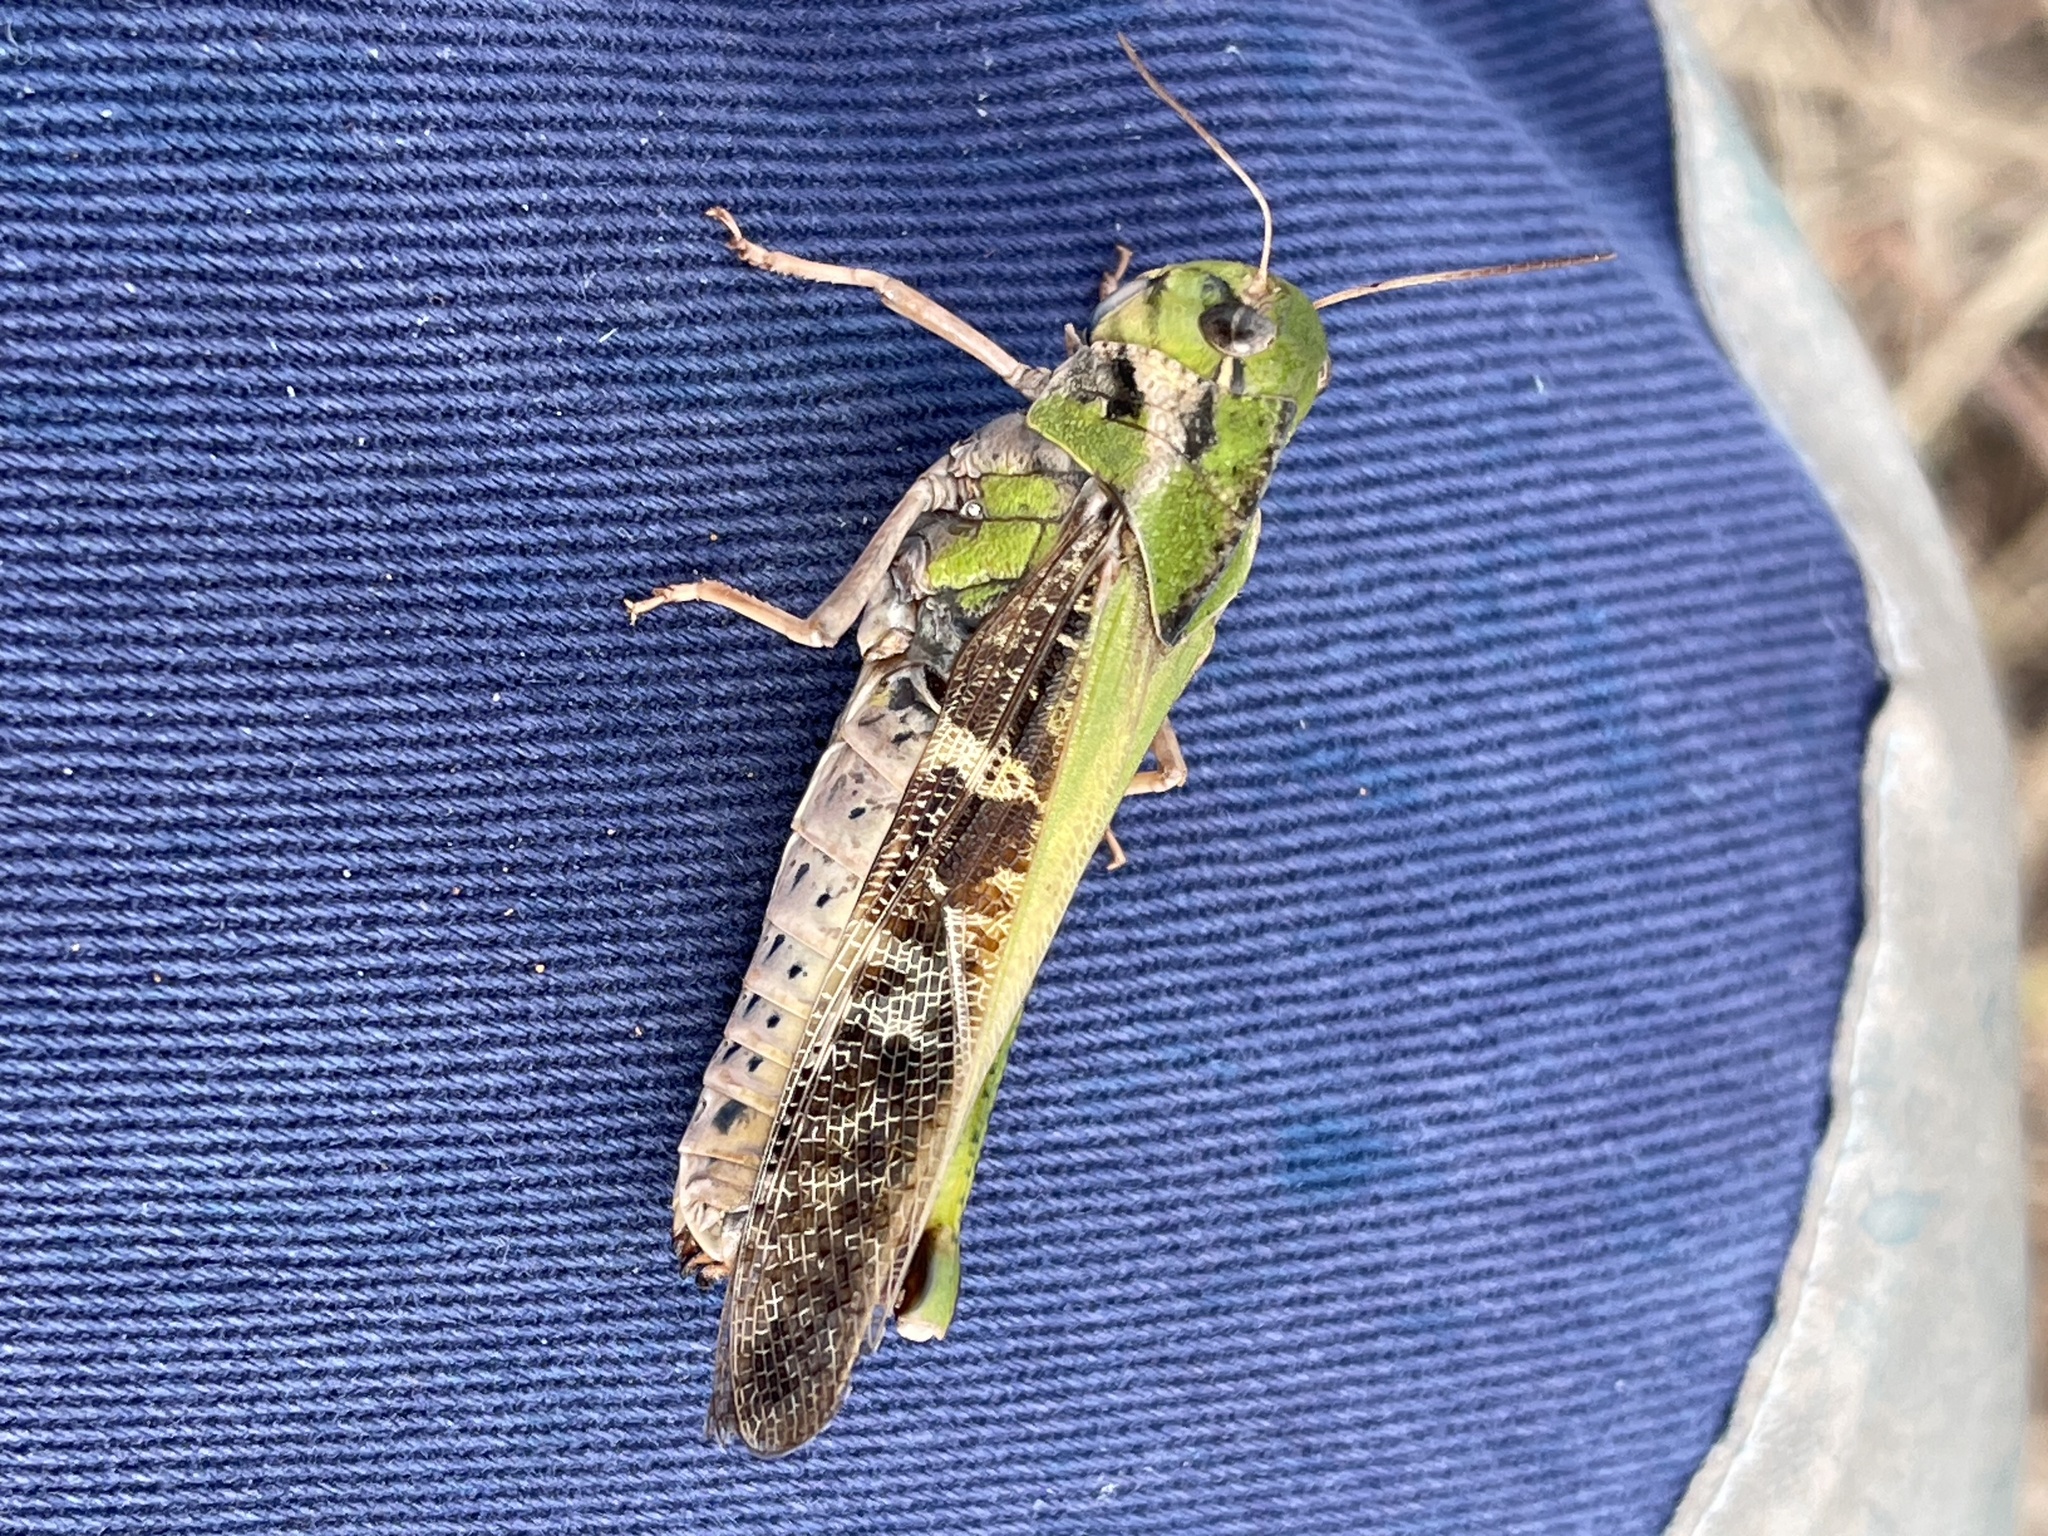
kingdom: Animalia
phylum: Arthropoda
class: Insecta
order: Orthoptera
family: Acrididae
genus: Gastrimargus
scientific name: Gastrimargus musicus
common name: Yellow-winged locust
